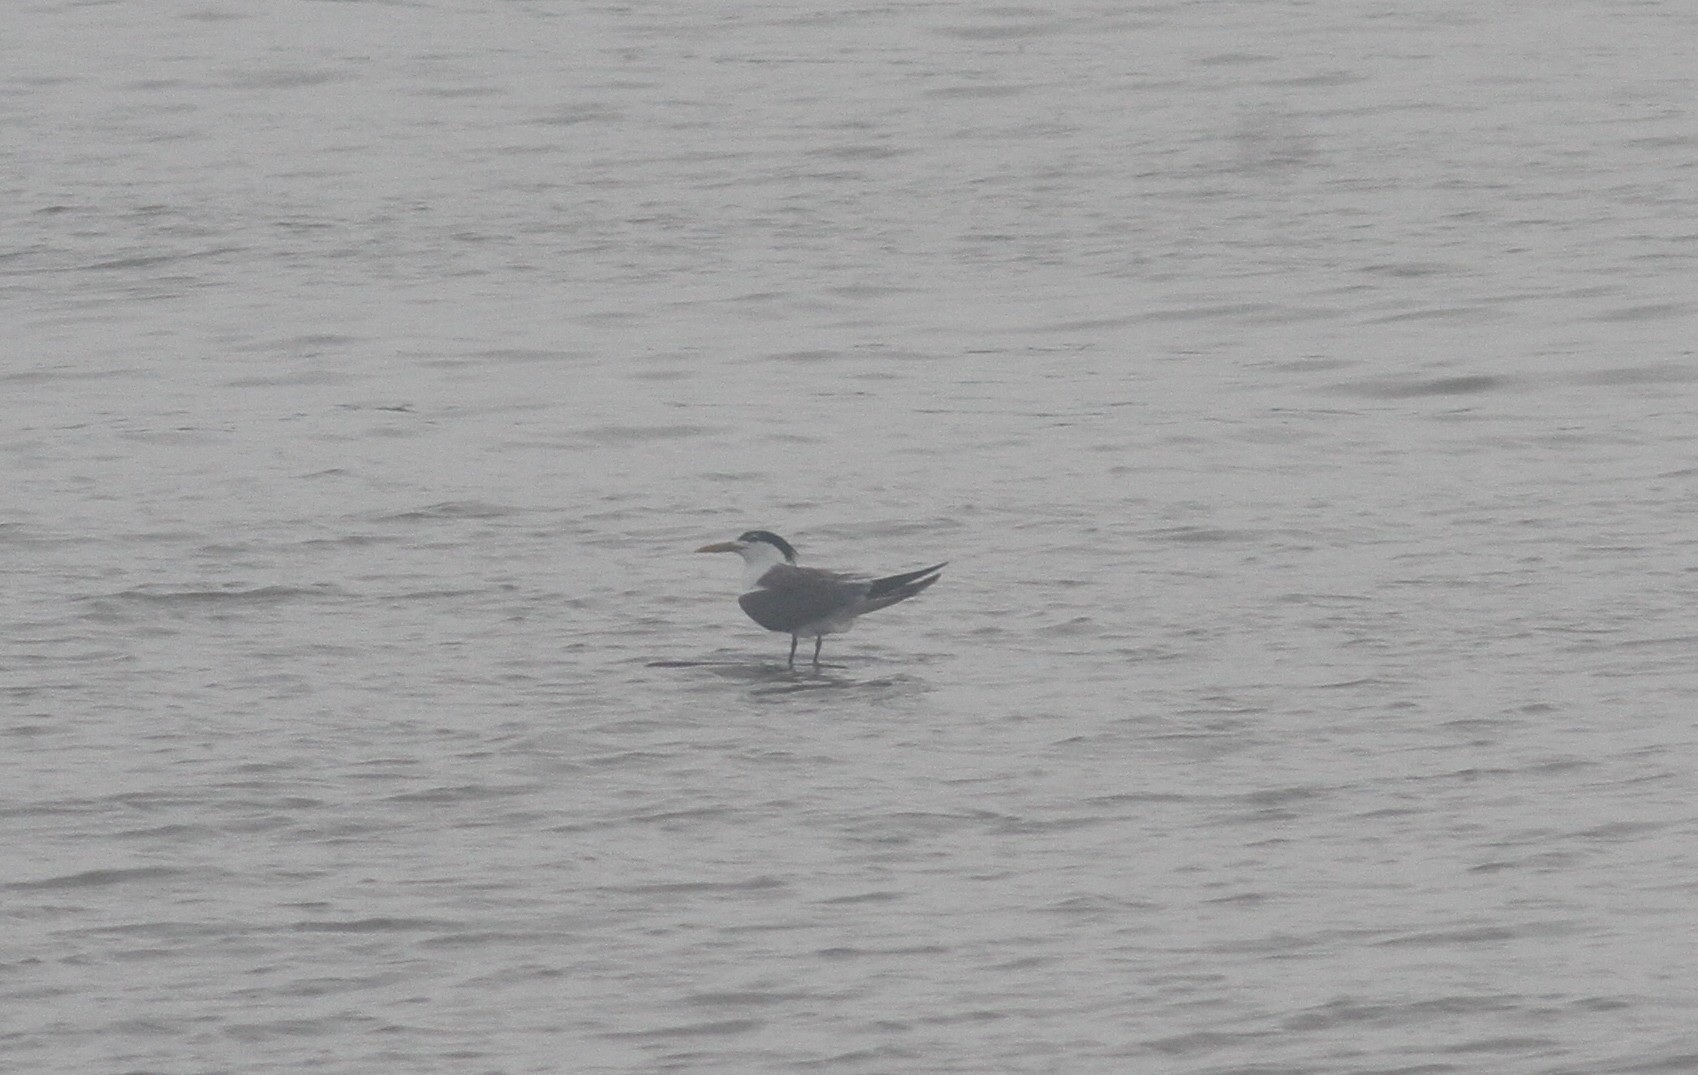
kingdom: Animalia
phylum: Chordata
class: Aves
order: Charadriiformes
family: Laridae
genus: Thalasseus
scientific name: Thalasseus bergii
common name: Greater crested tern
